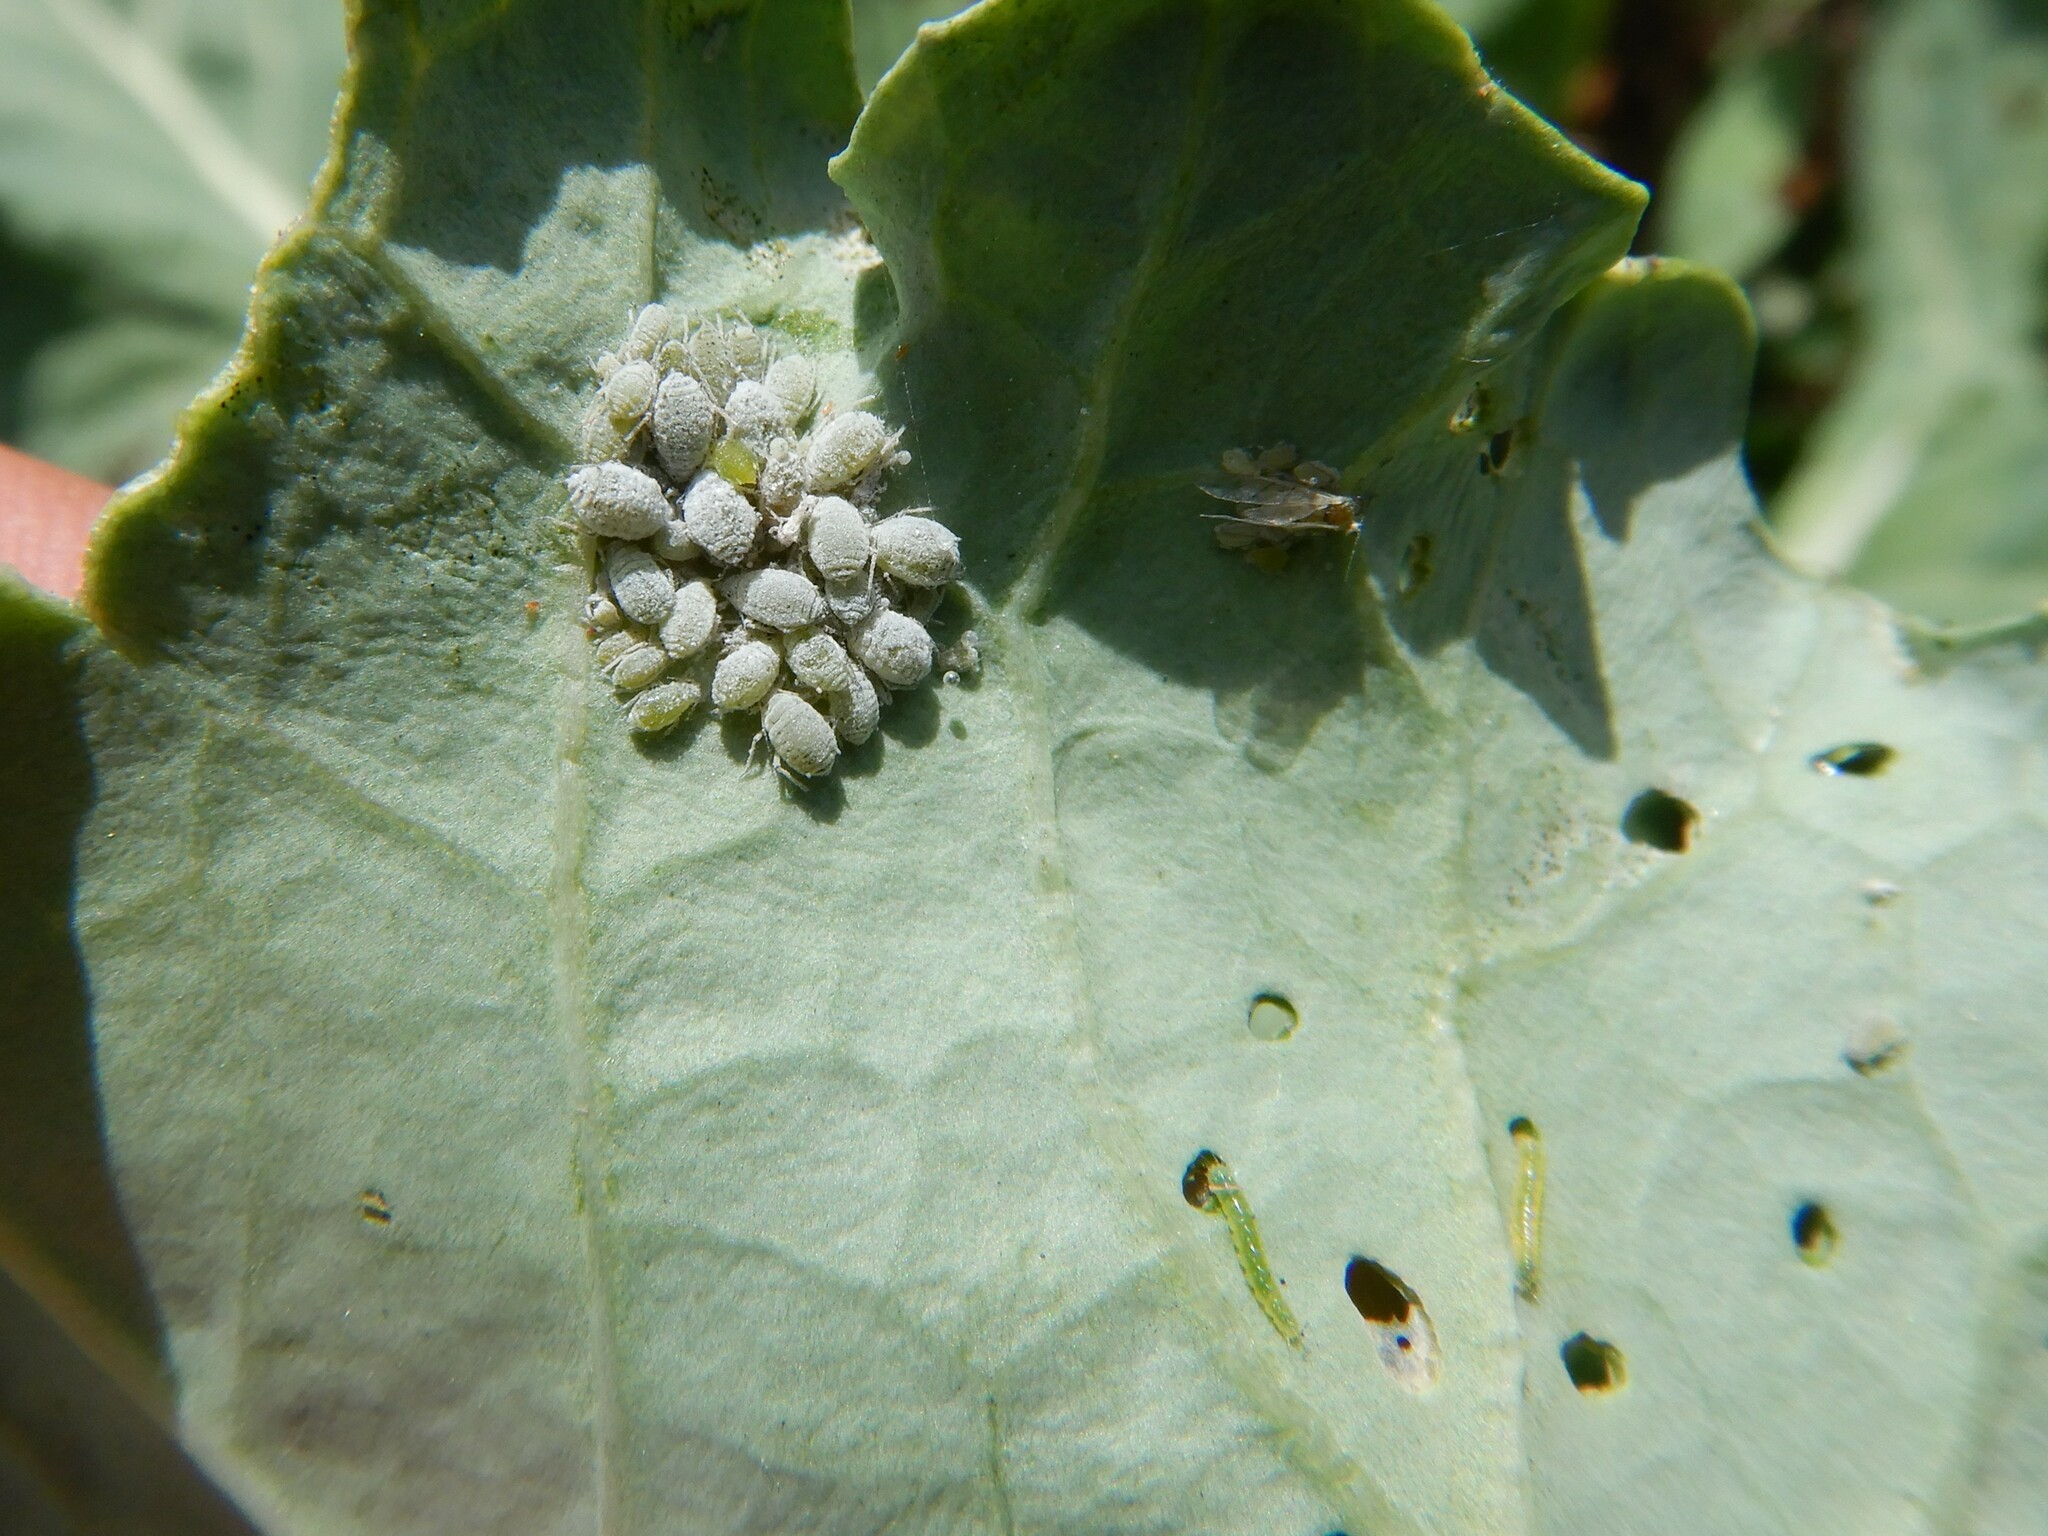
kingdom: Animalia
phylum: Arthropoda
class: Insecta
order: Hemiptera
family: Aphididae
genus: Brevicoryne
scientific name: Brevicoryne brassicae
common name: Cabbage aphid
